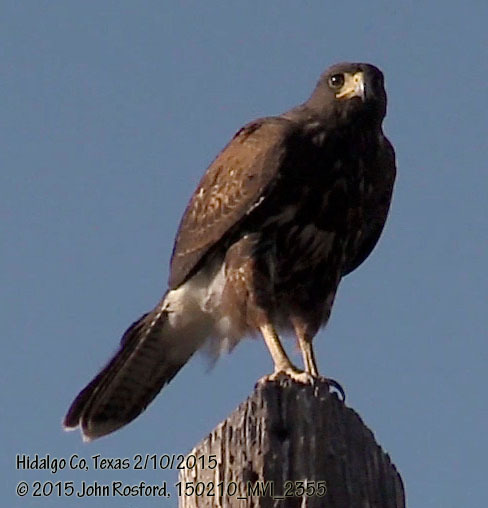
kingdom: Animalia
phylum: Chordata
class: Aves
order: Accipitriformes
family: Accipitridae
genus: Parabuteo
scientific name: Parabuteo unicinctus
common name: Harris's hawk
